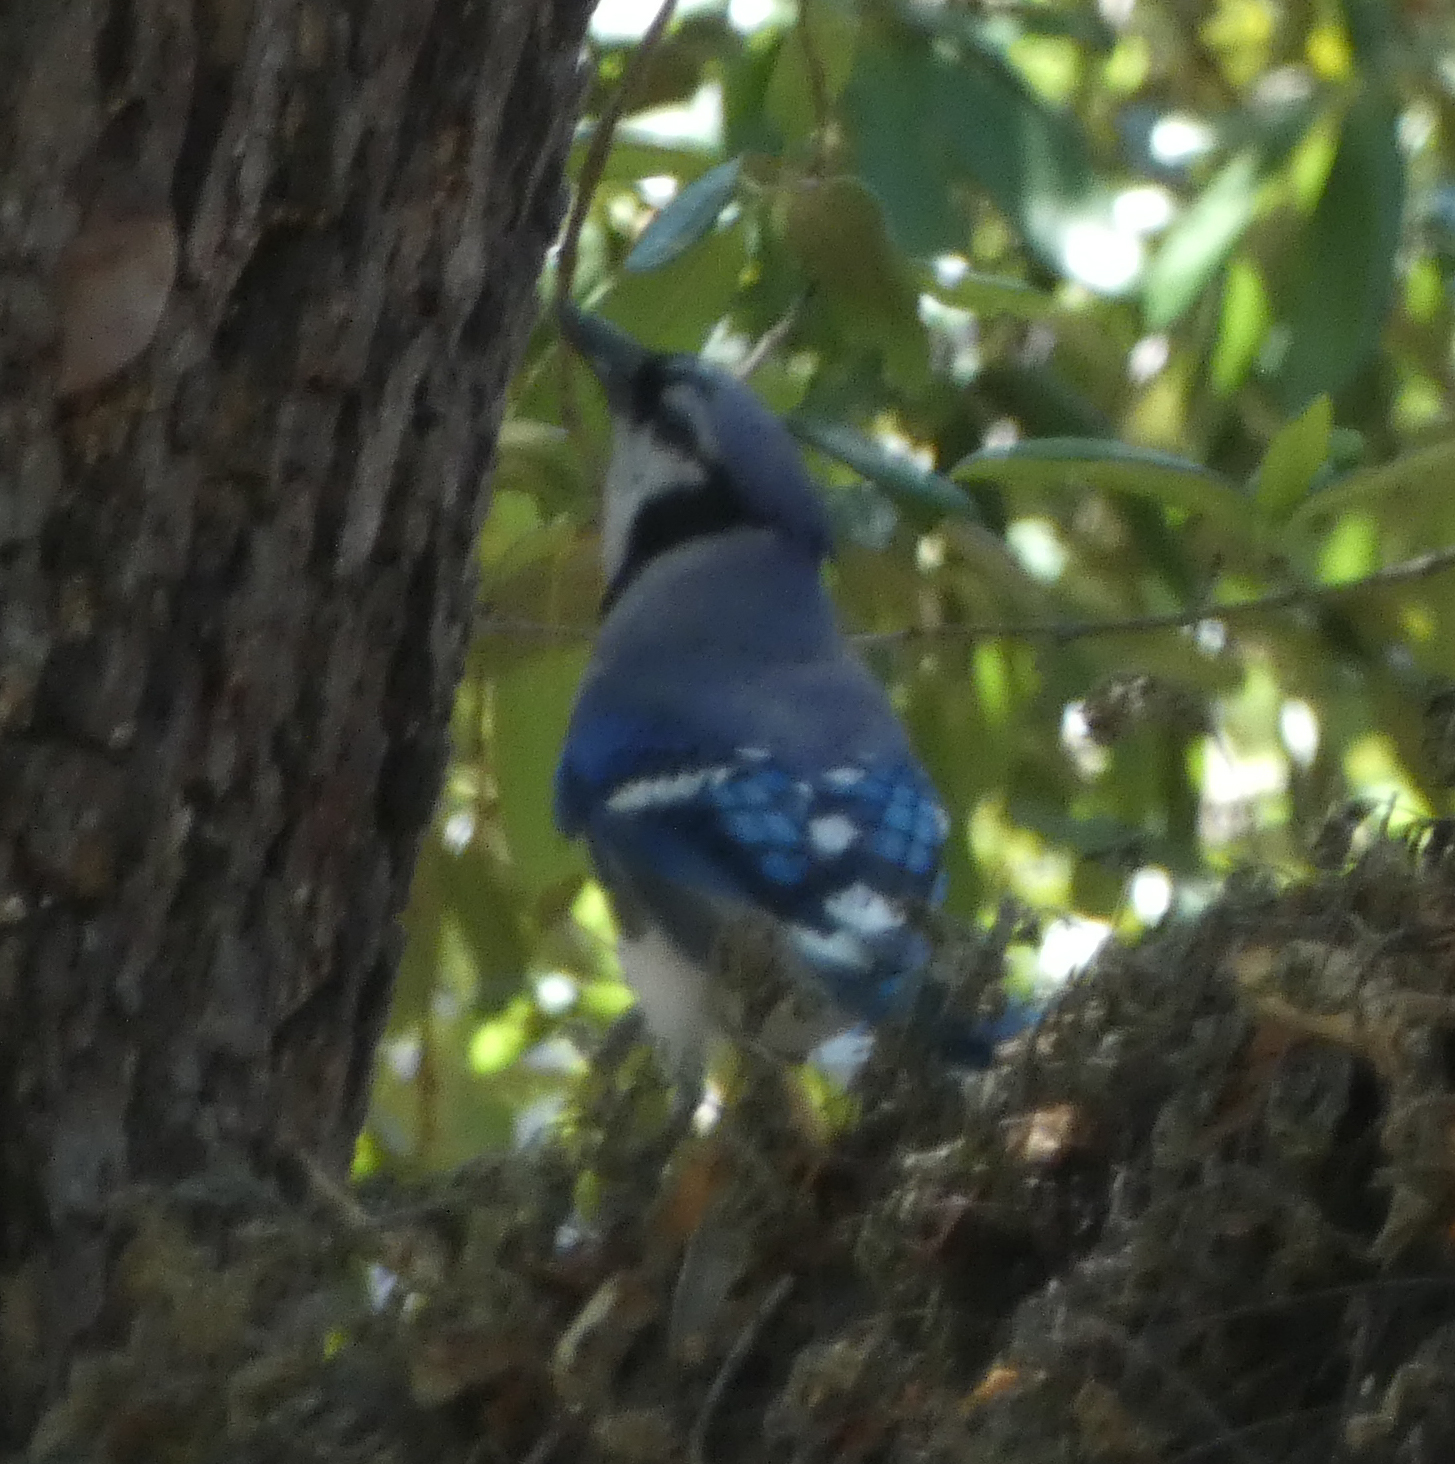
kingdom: Animalia
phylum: Chordata
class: Aves
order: Passeriformes
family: Corvidae
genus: Cyanocitta
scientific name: Cyanocitta cristata
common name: Blue jay
